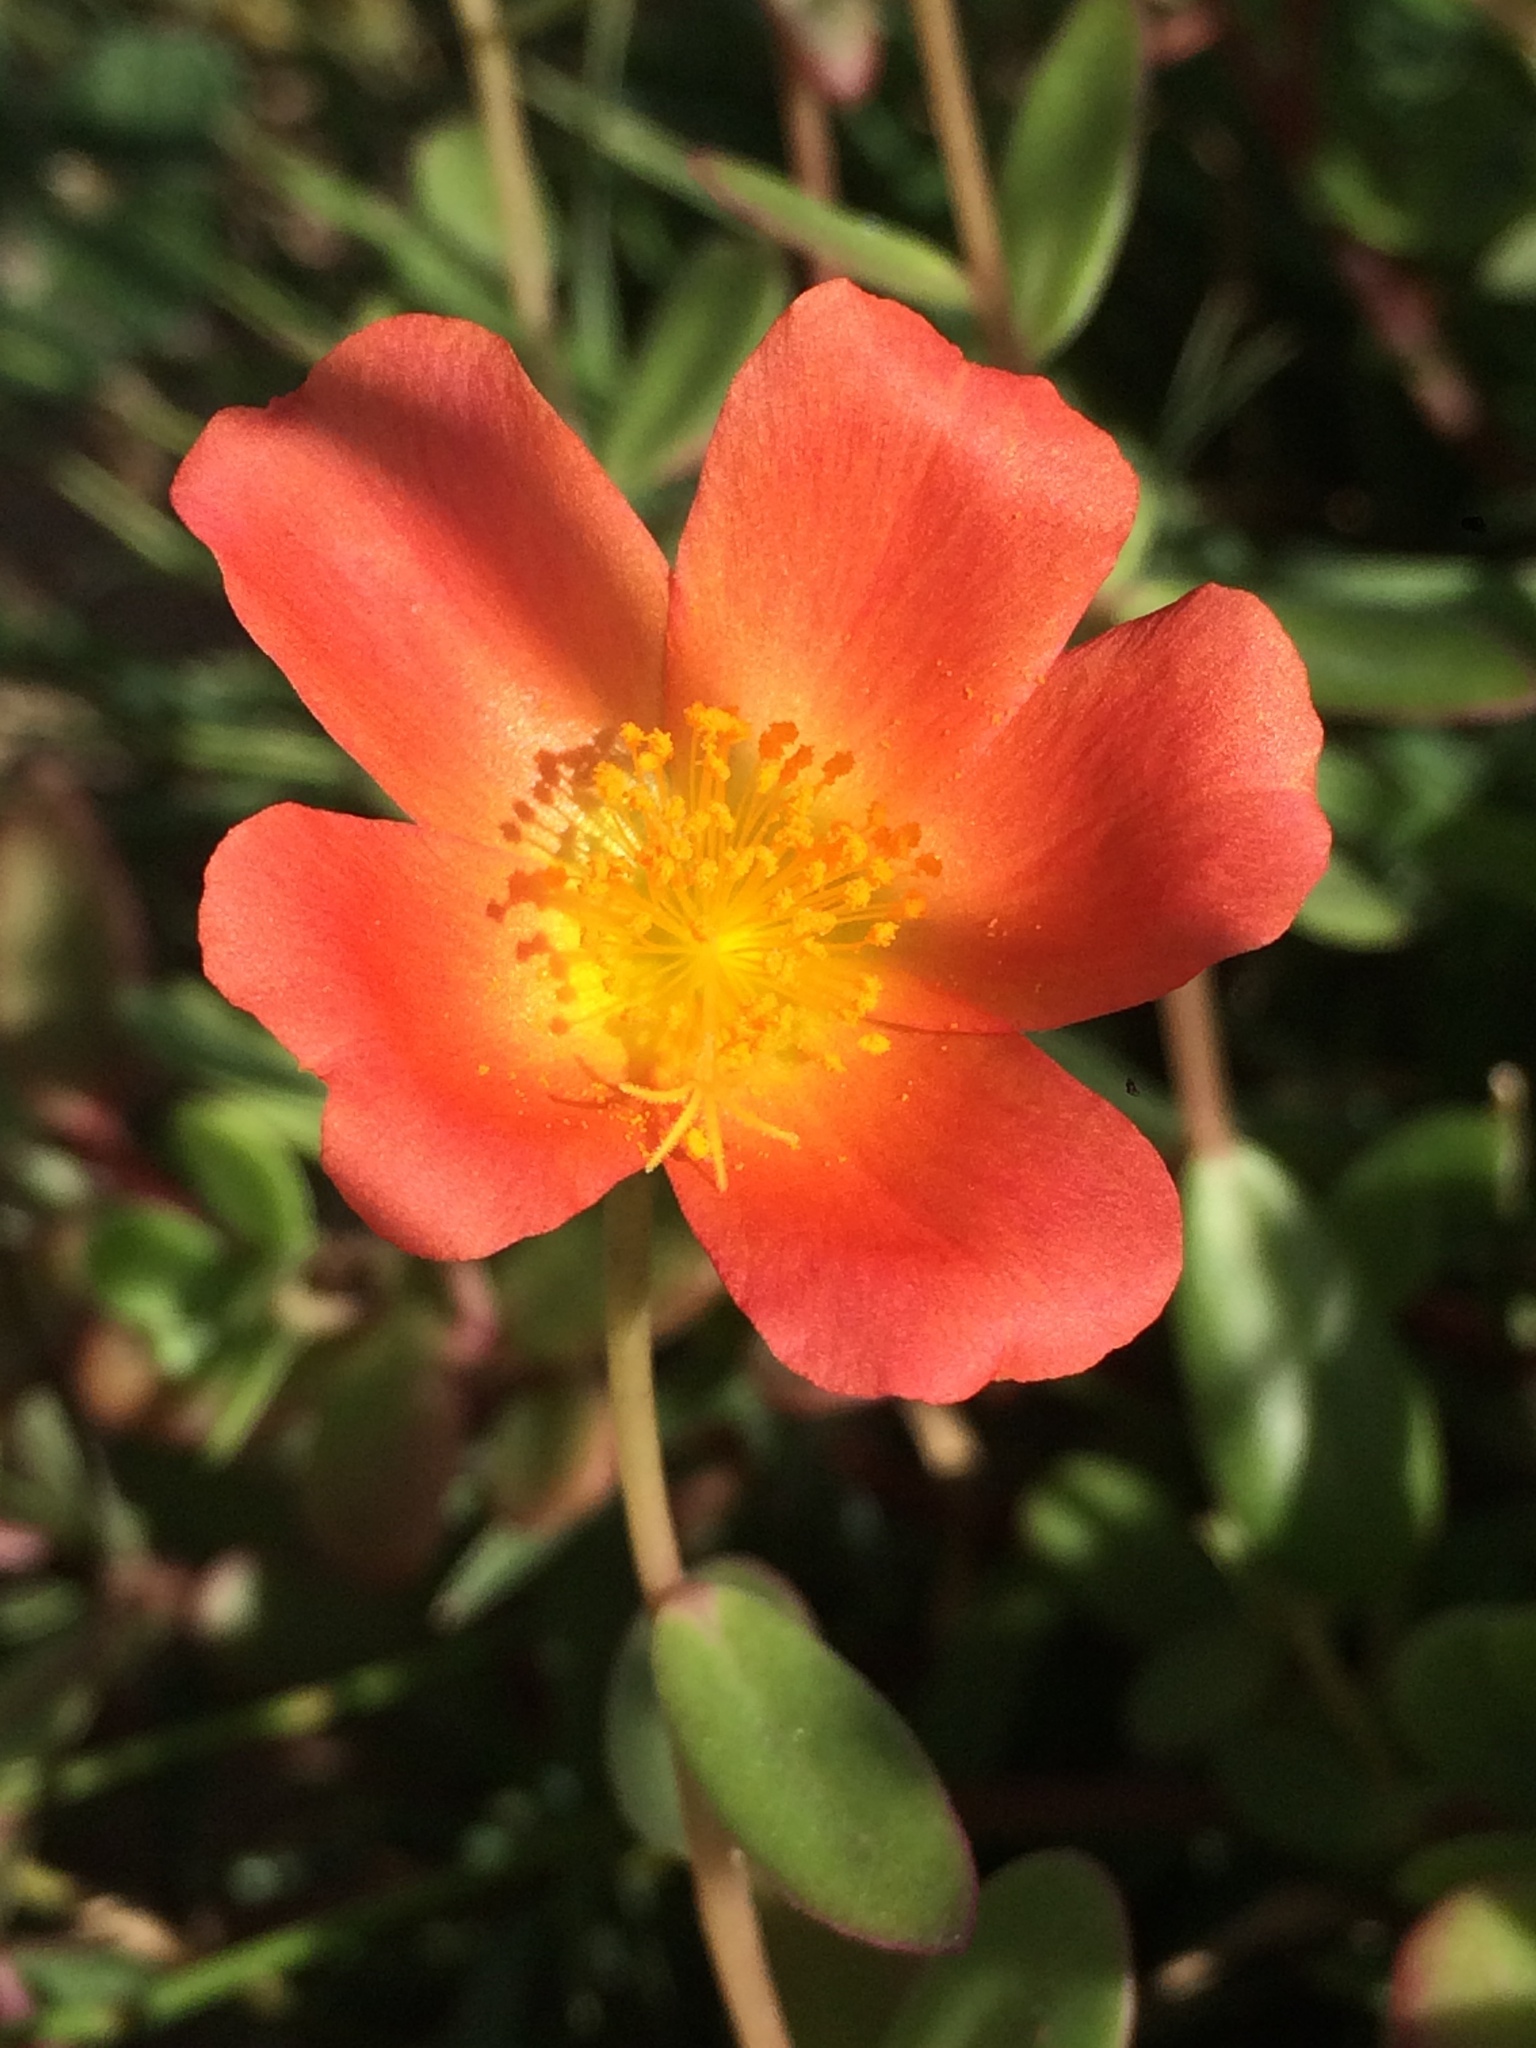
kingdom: Plantae
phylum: Tracheophyta
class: Magnoliopsida
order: Caryophyllales
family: Portulacaceae
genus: Portulaca
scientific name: Portulaca umbraticola
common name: Wingpod purslane
